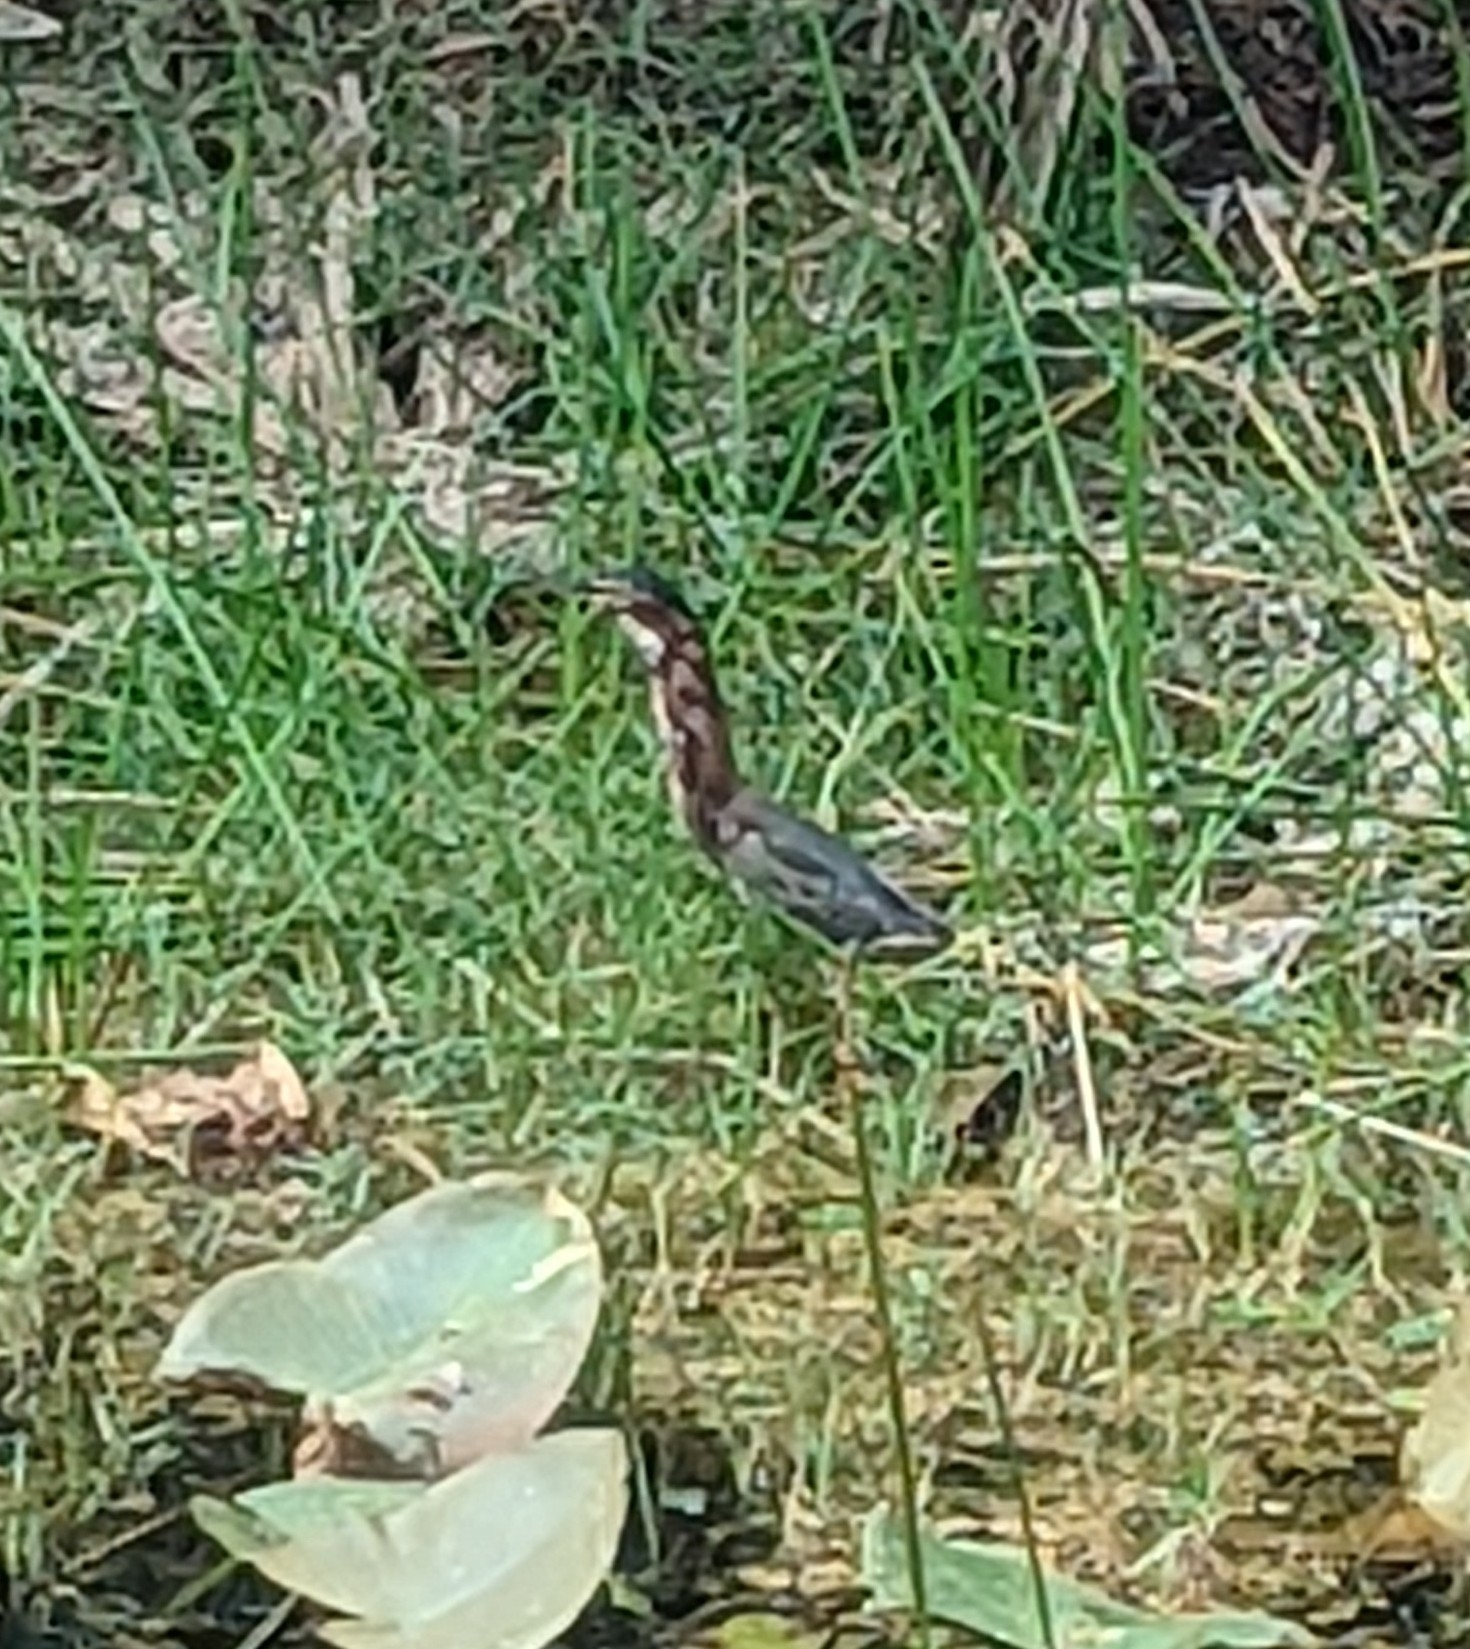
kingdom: Animalia
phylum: Chordata
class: Aves
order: Pelecaniformes
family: Ardeidae
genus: Butorides
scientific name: Butorides virescens
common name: Green heron
